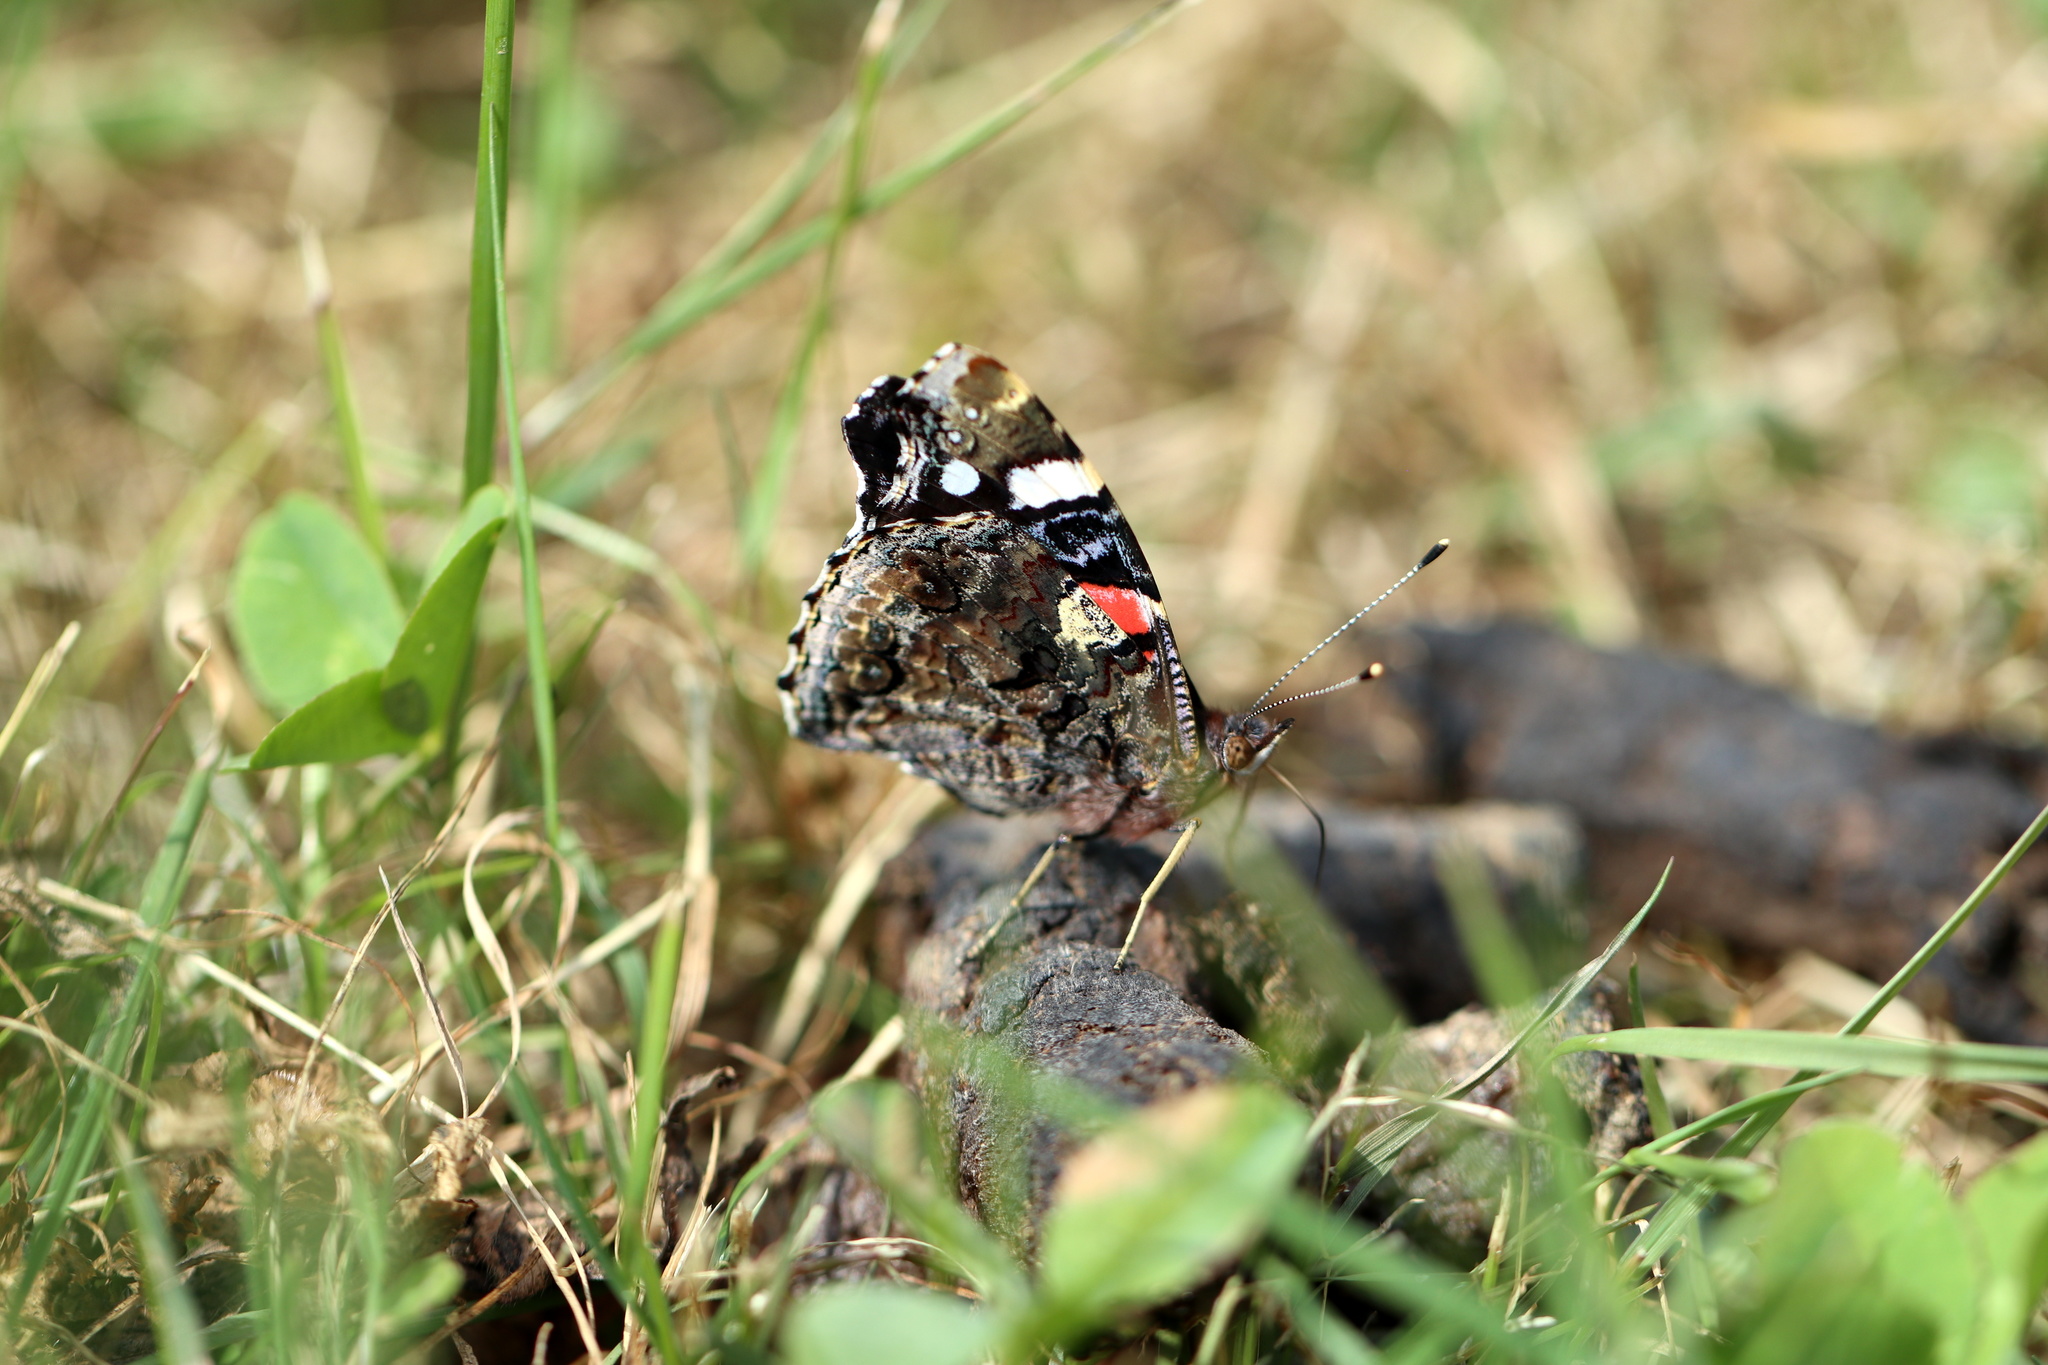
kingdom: Animalia
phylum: Arthropoda
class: Insecta
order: Lepidoptera
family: Nymphalidae
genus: Vanessa
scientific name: Vanessa atalanta
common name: Red admiral
